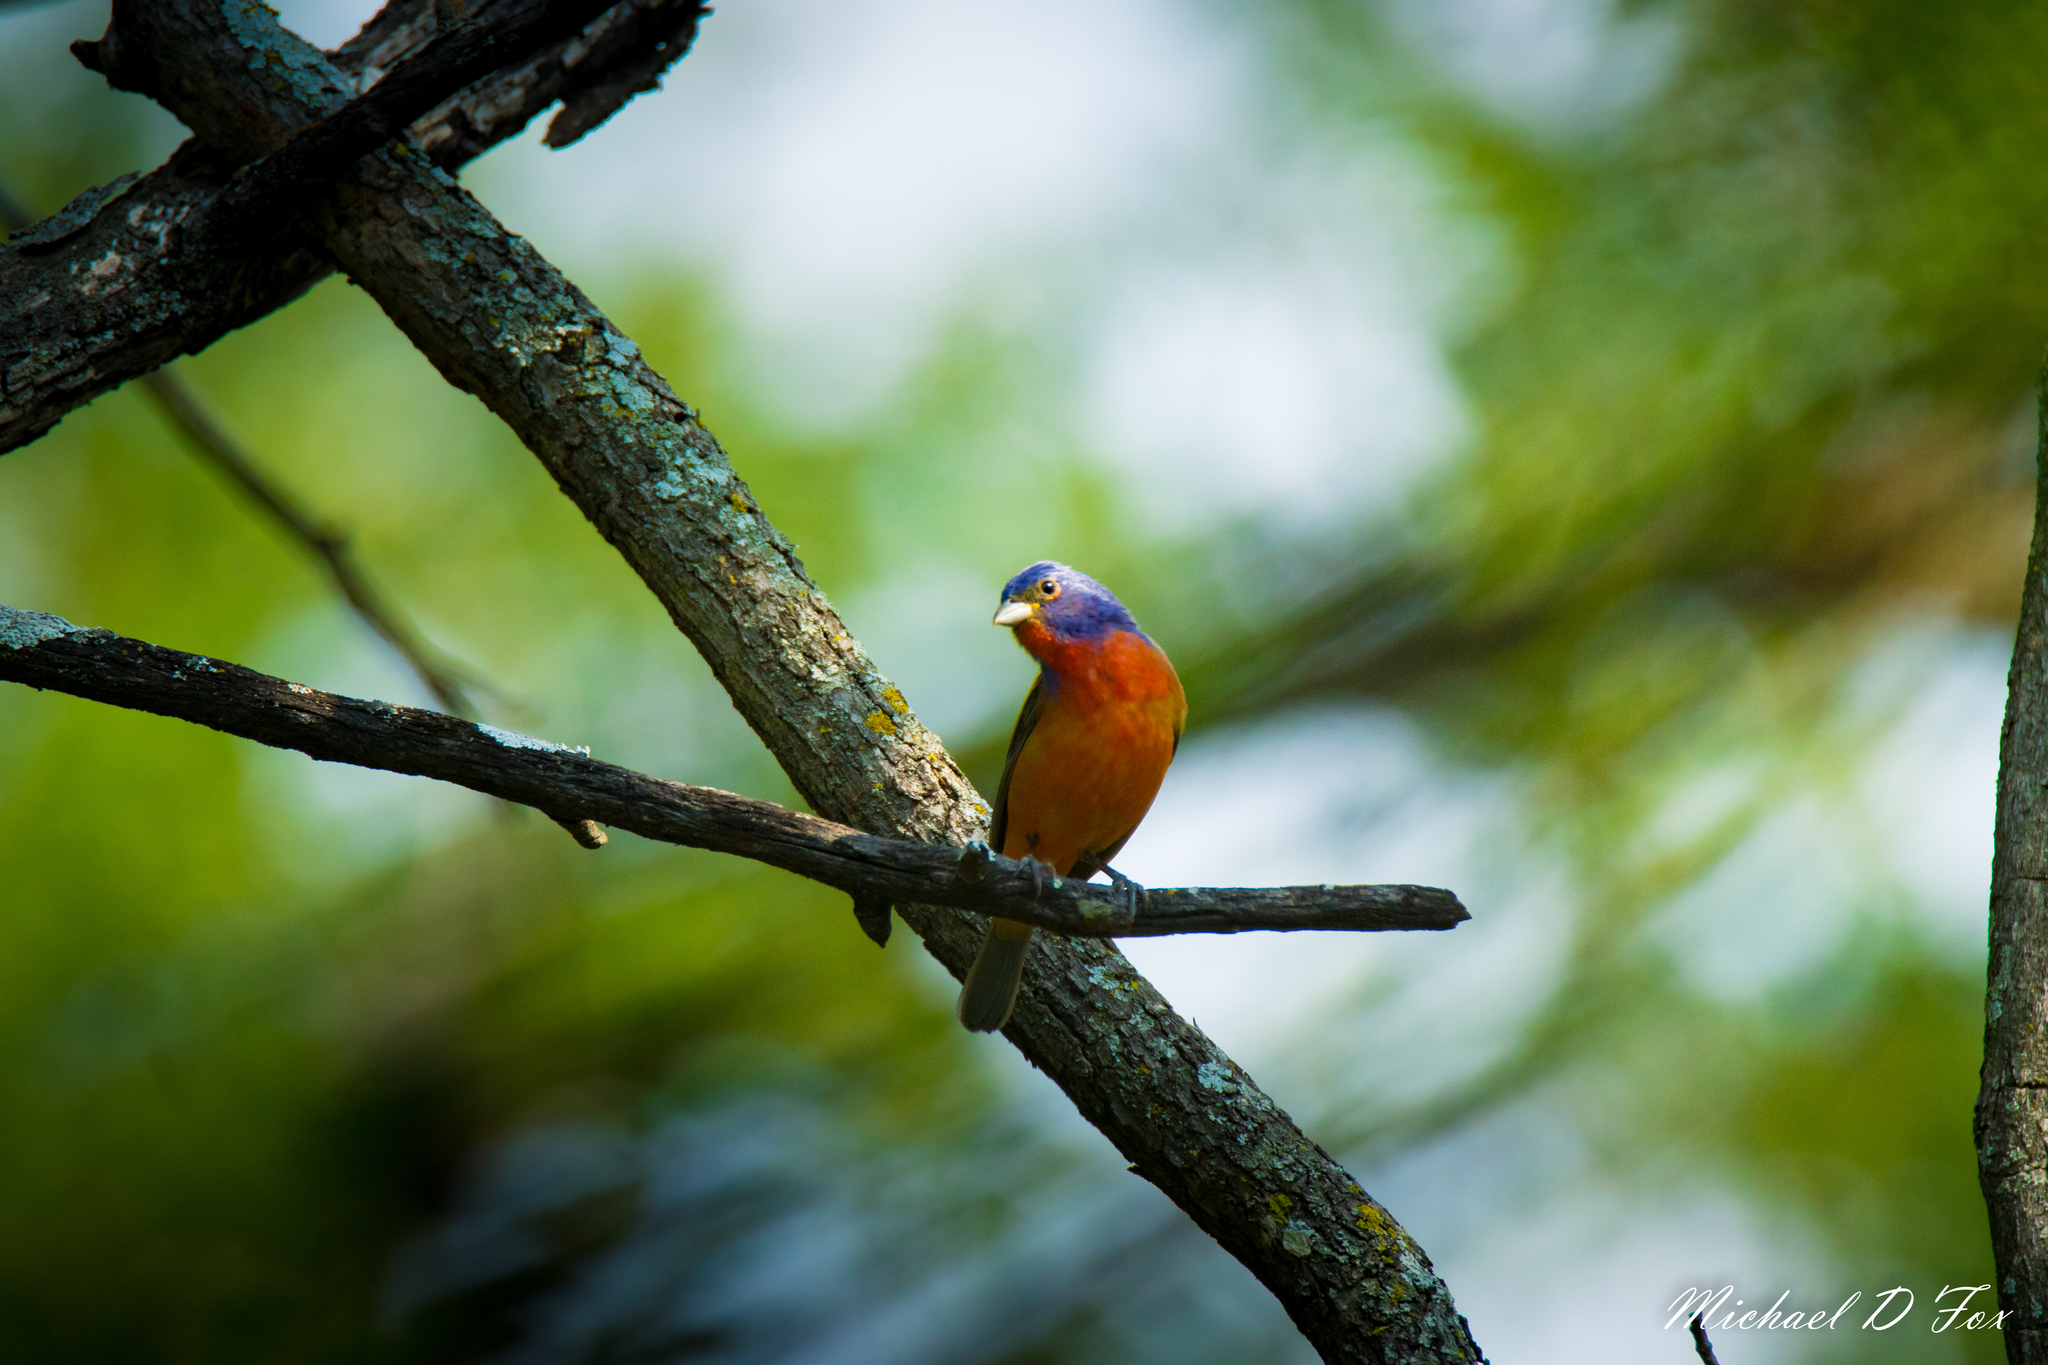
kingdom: Animalia
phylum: Chordata
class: Aves
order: Passeriformes
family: Cardinalidae
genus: Passerina
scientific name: Passerina ciris
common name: Painted bunting
